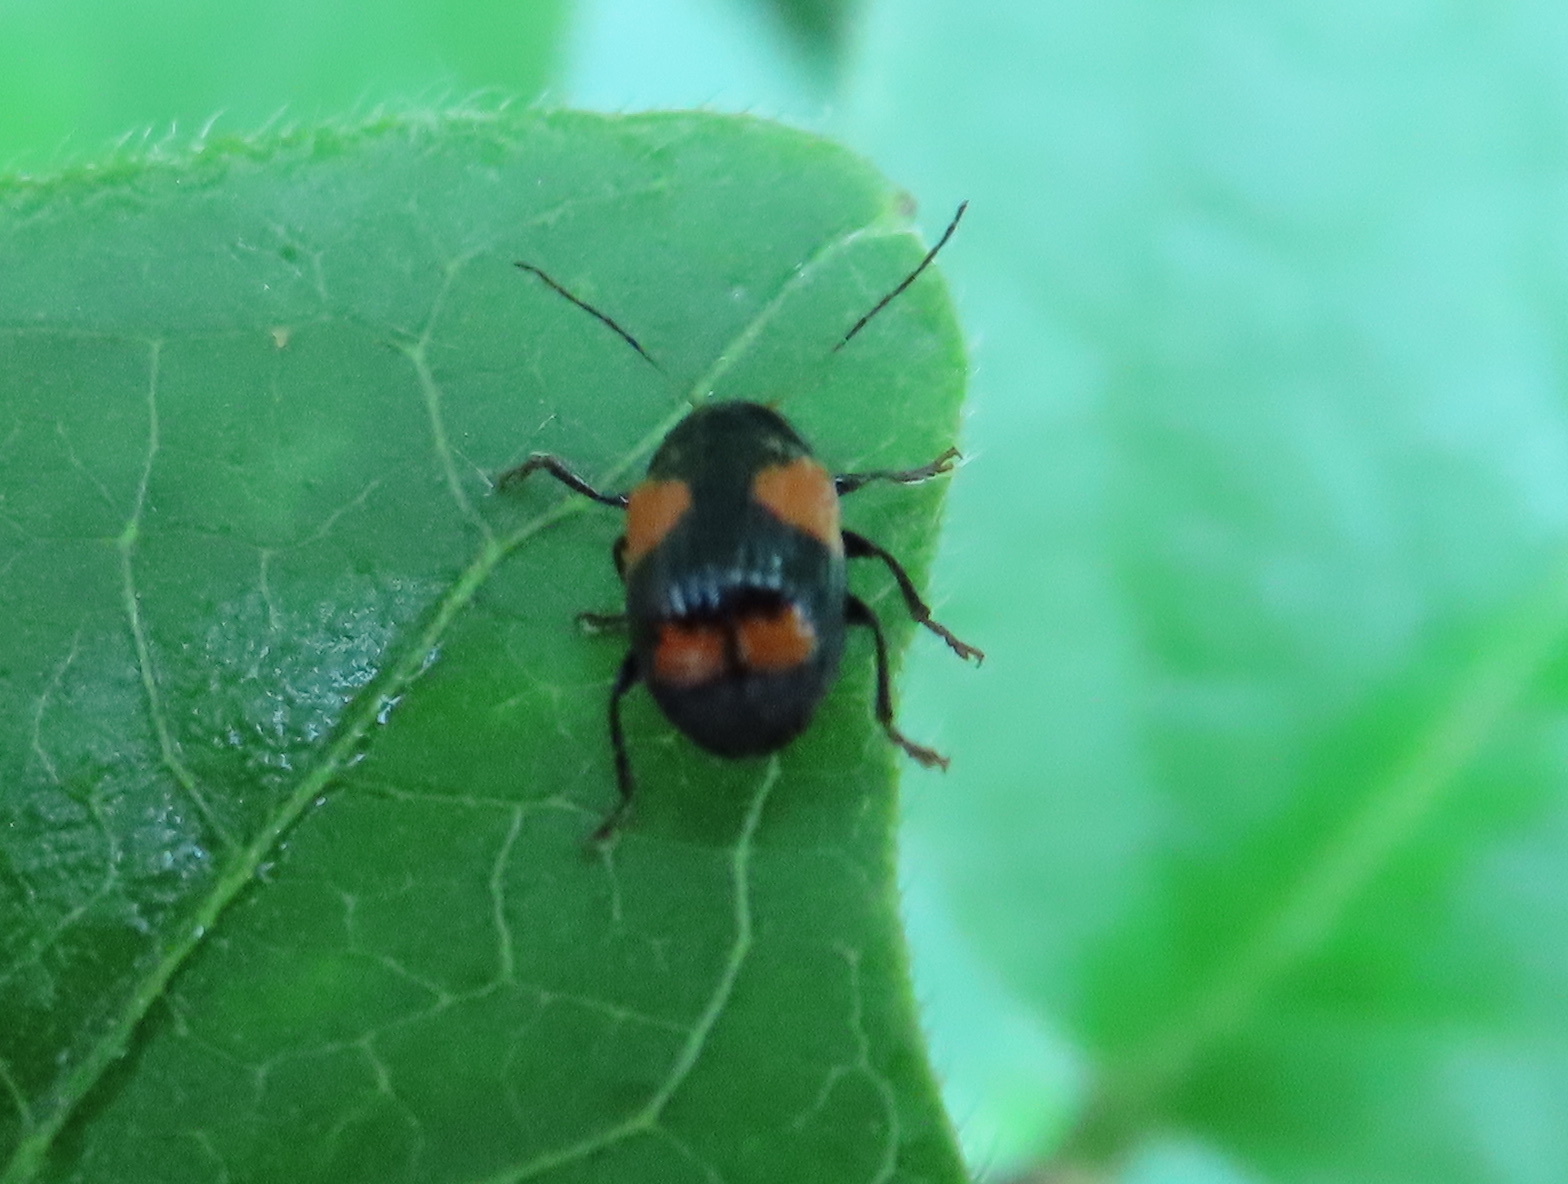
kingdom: Animalia
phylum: Arthropoda
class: Insecta
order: Coleoptera
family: Chrysomelidae
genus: Bassareus
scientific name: Bassareus mammifer
